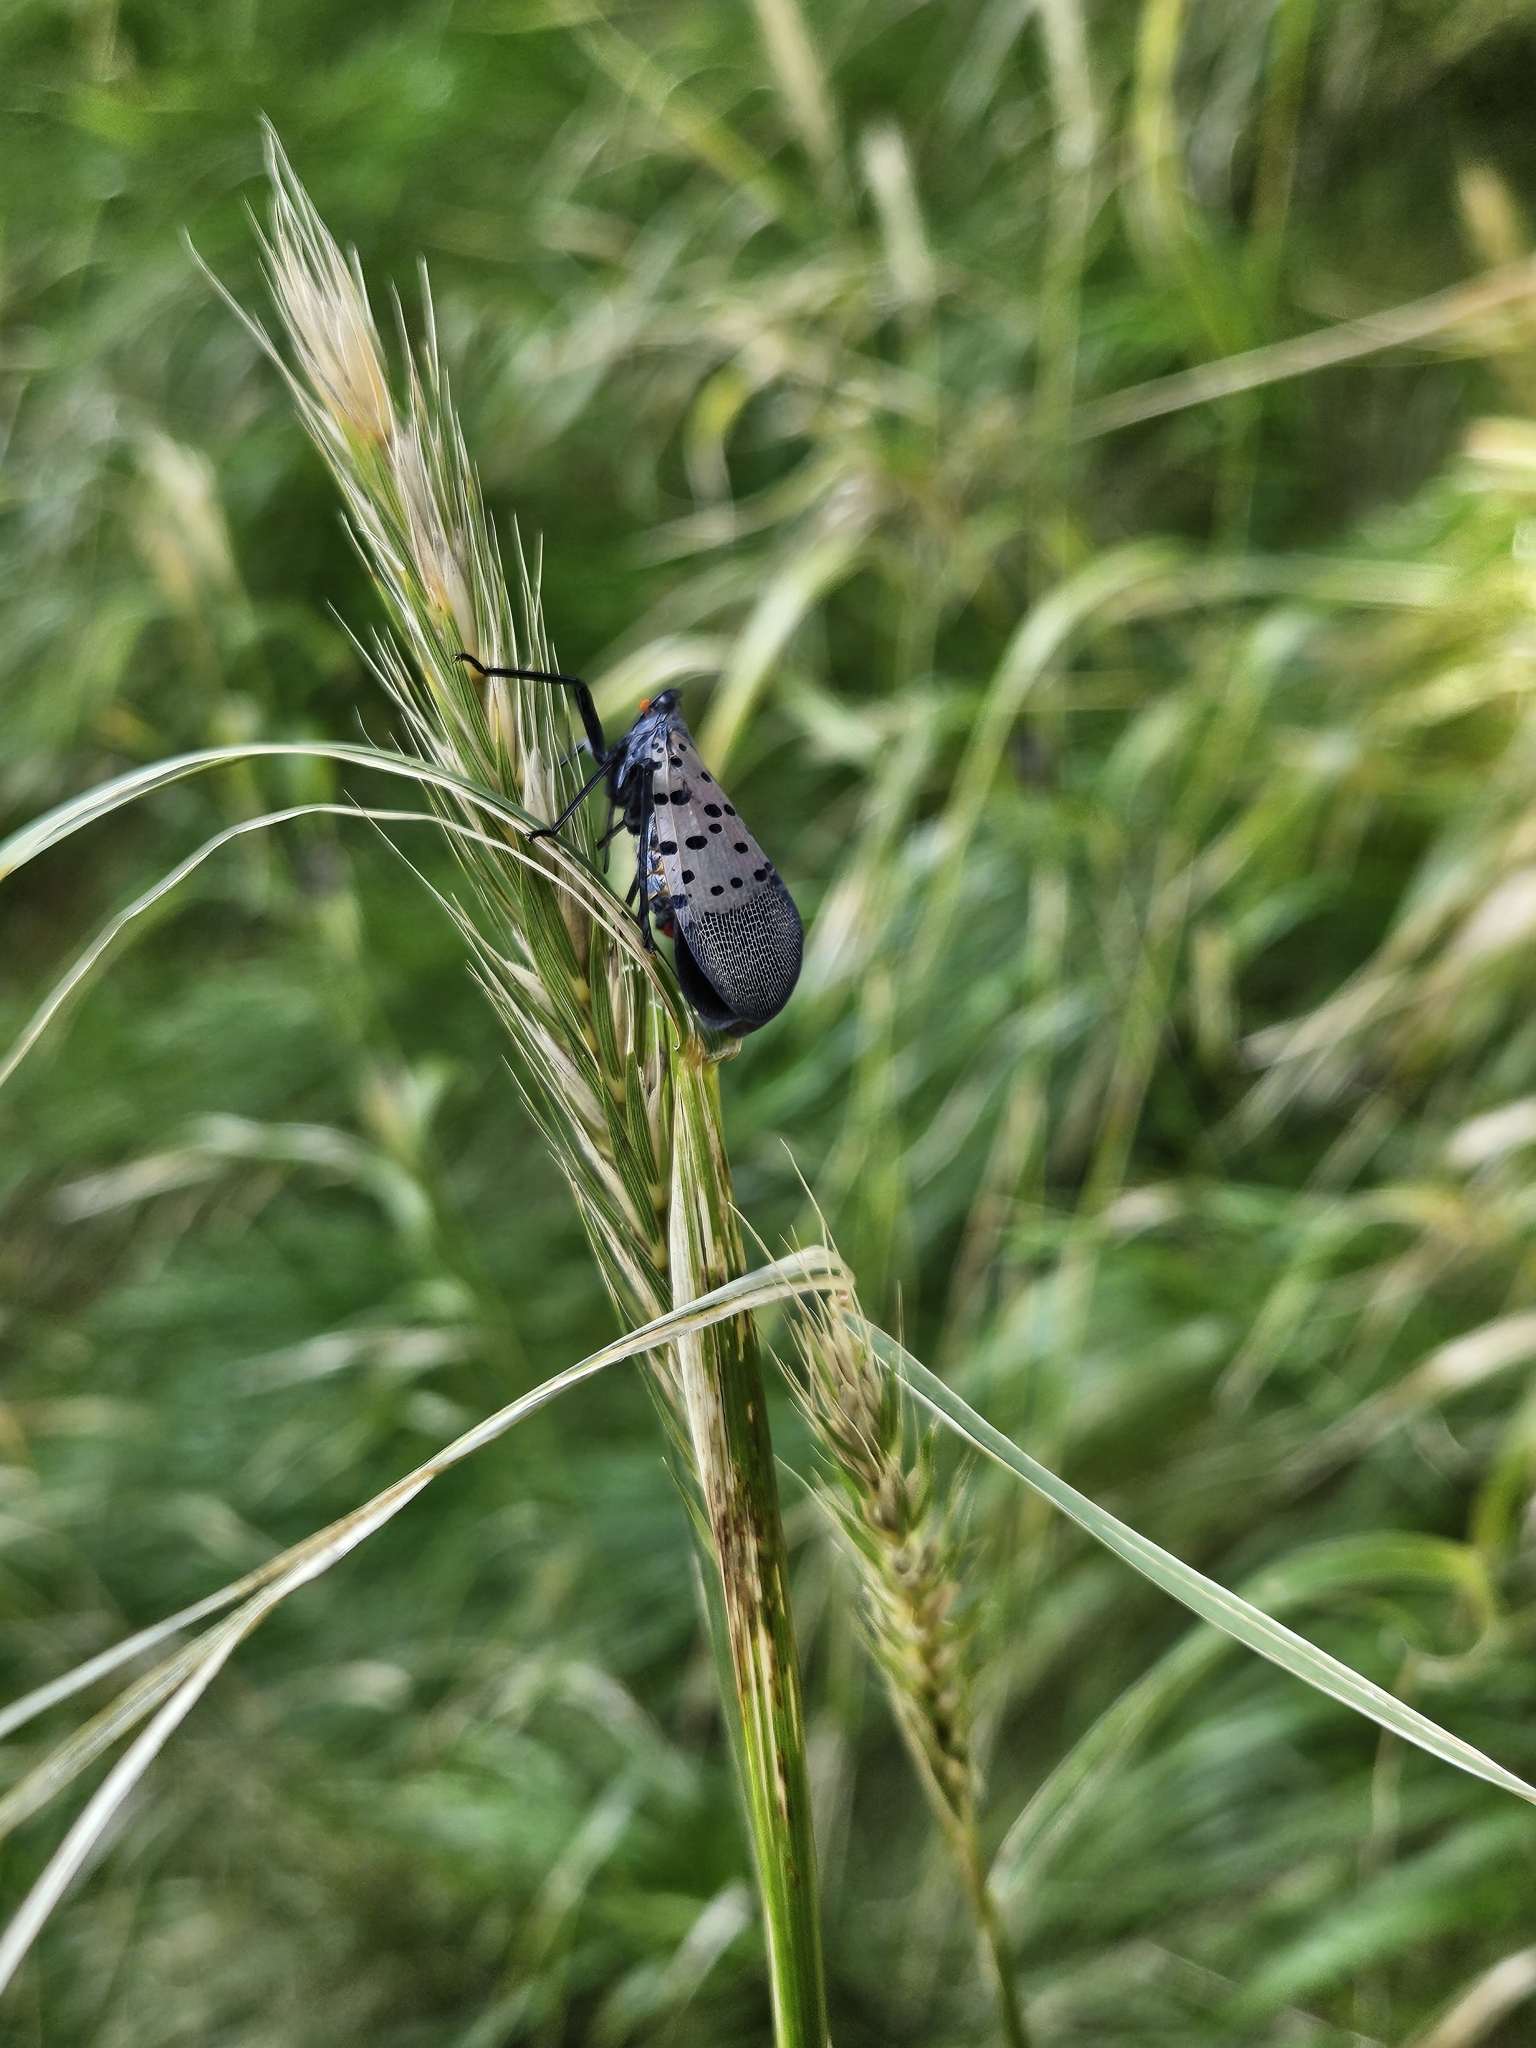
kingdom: Animalia
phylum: Arthropoda
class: Insecta
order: Hemiptera
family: Fulgoridae
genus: Lycorma
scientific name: Lycorma delicatula
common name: Spotted lanternfly
